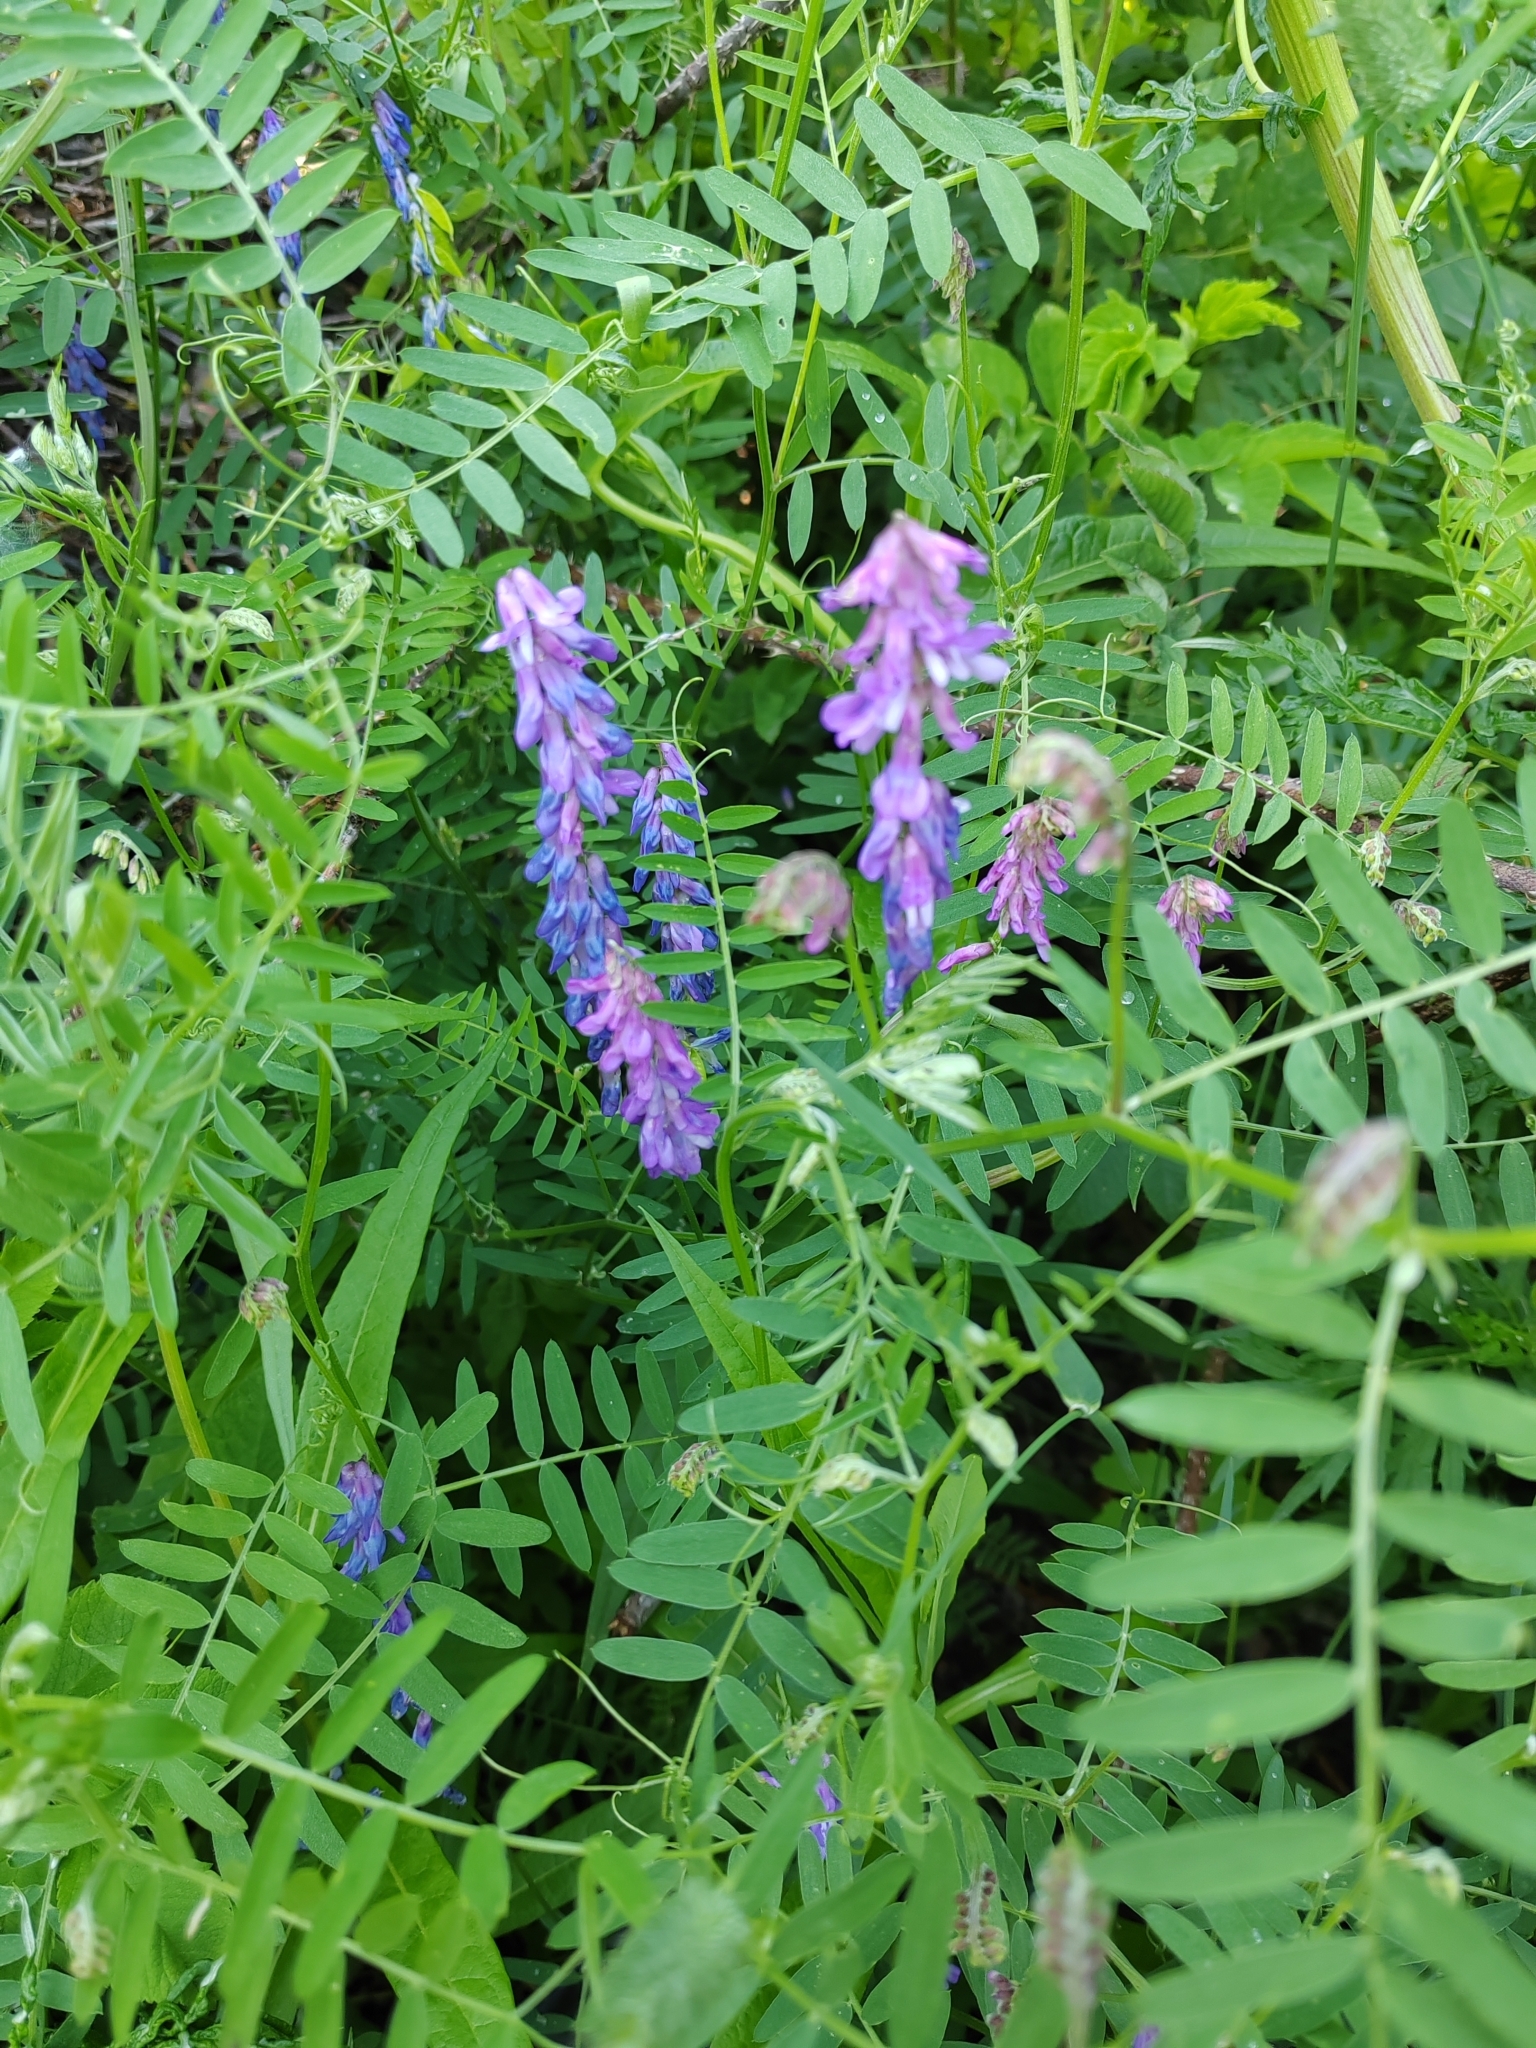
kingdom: Plantae
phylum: Tracheophyta
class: Magnoliopsida
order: Fabales
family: Fabaceae
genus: Vicia
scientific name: Vicia cracca
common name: Bird vetch
